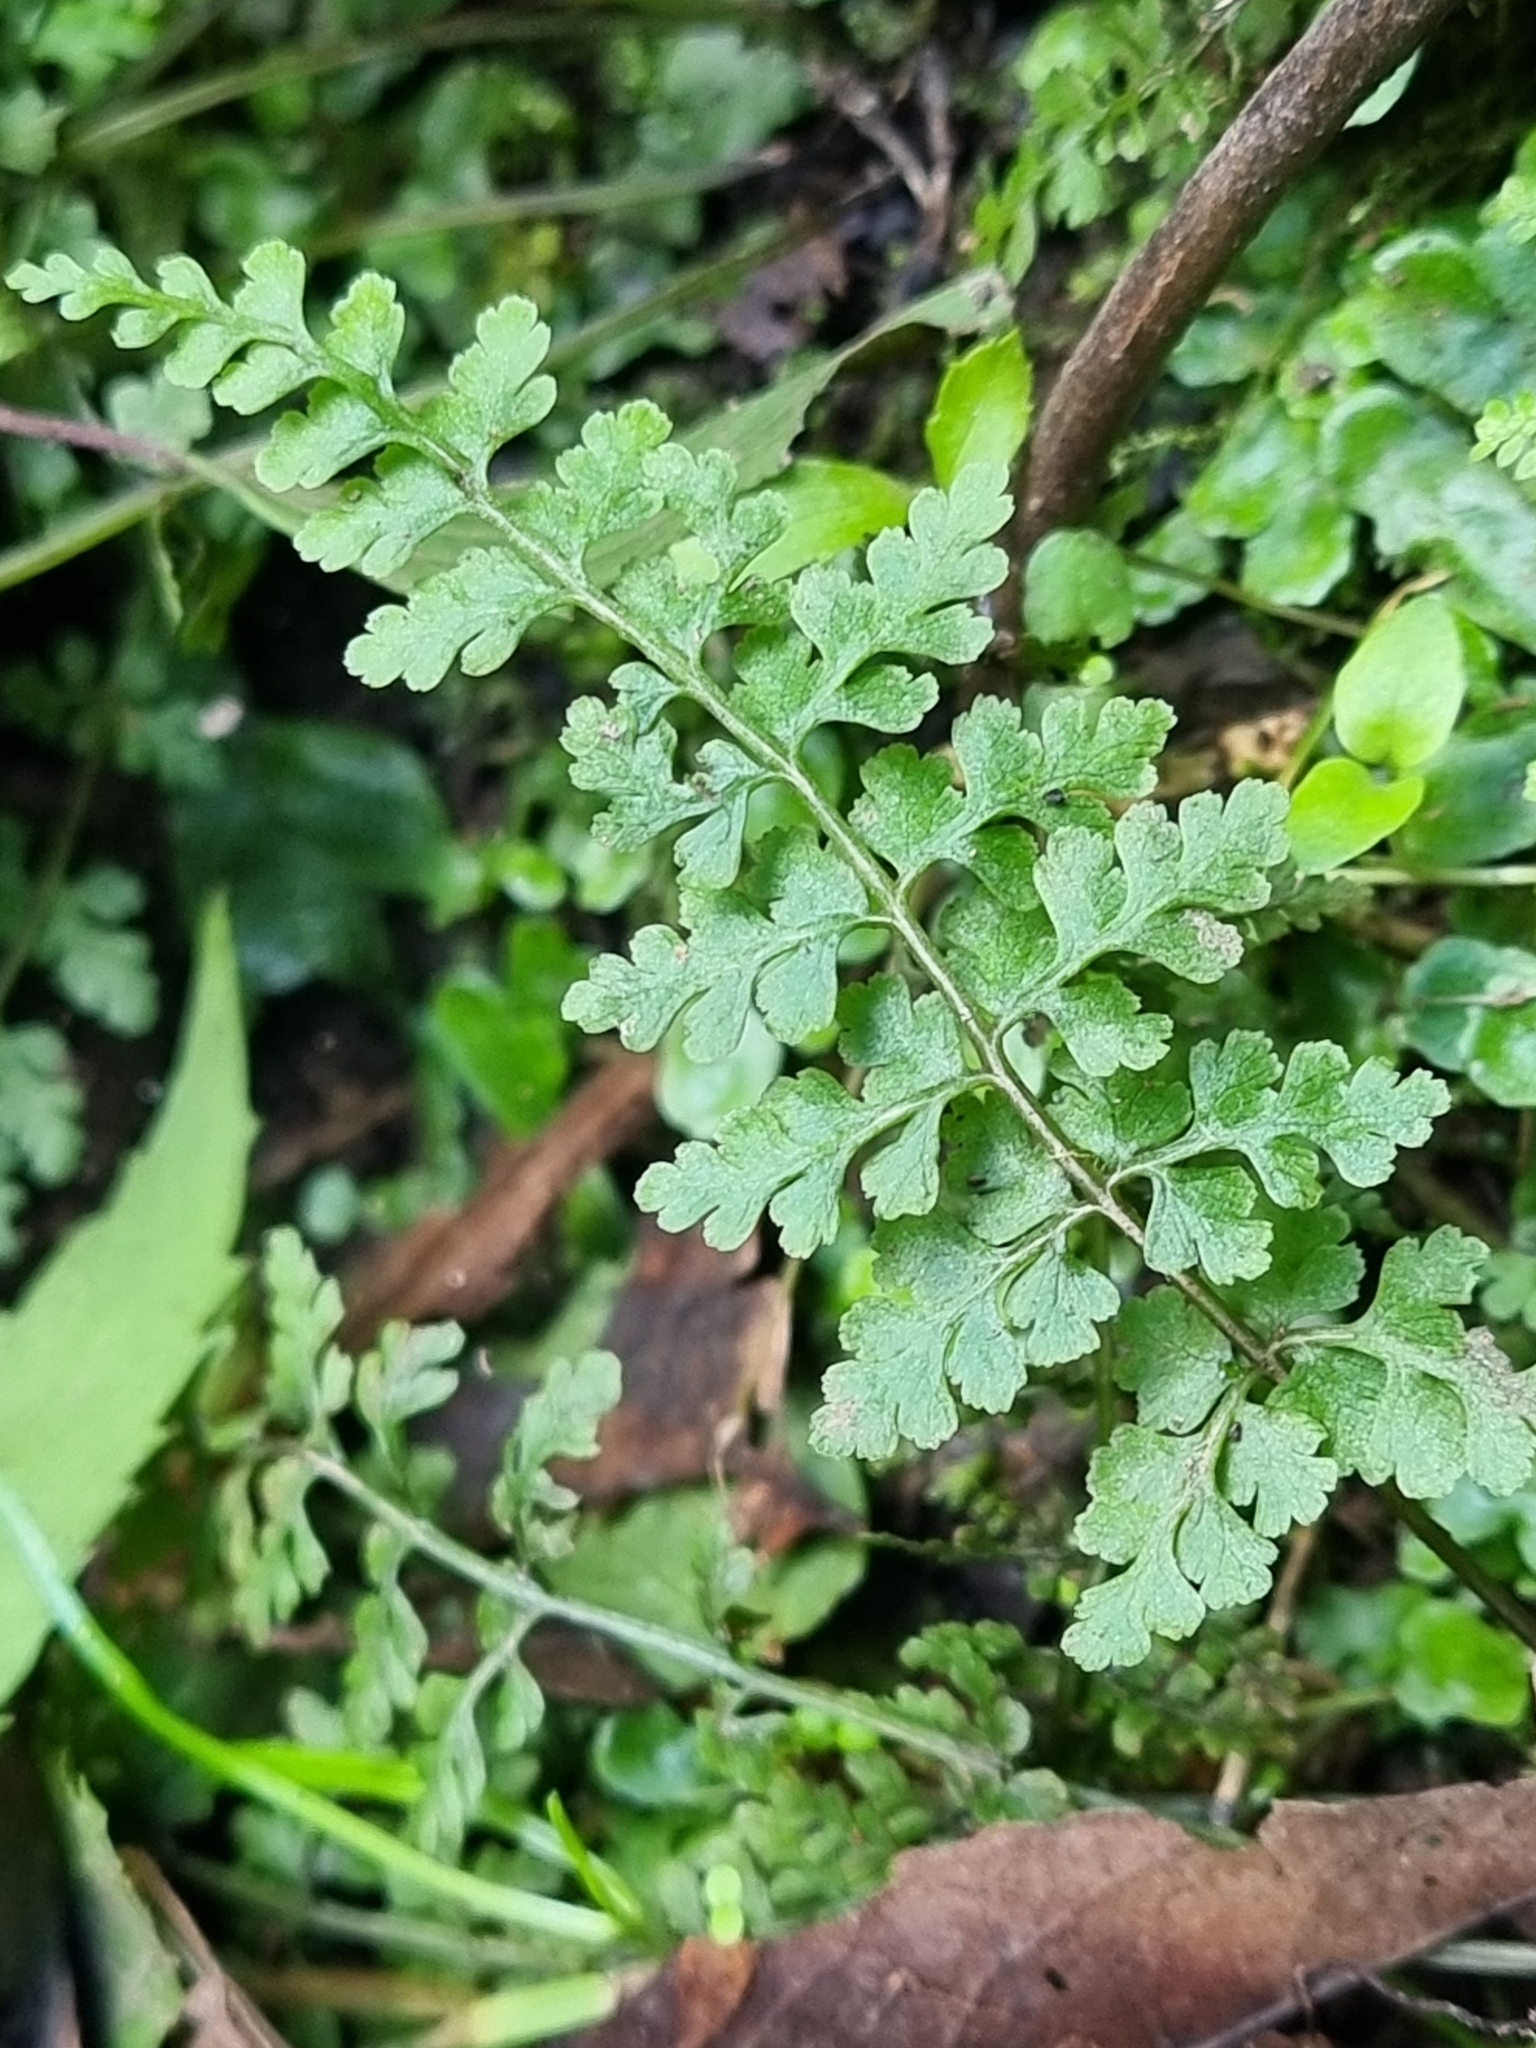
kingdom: Plantae
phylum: Tracheophyta
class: Polypodiopsida
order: Polypodiales
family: Pteridaceae
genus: Anogramma
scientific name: Anogramma leptophylla
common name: Jersey fern
